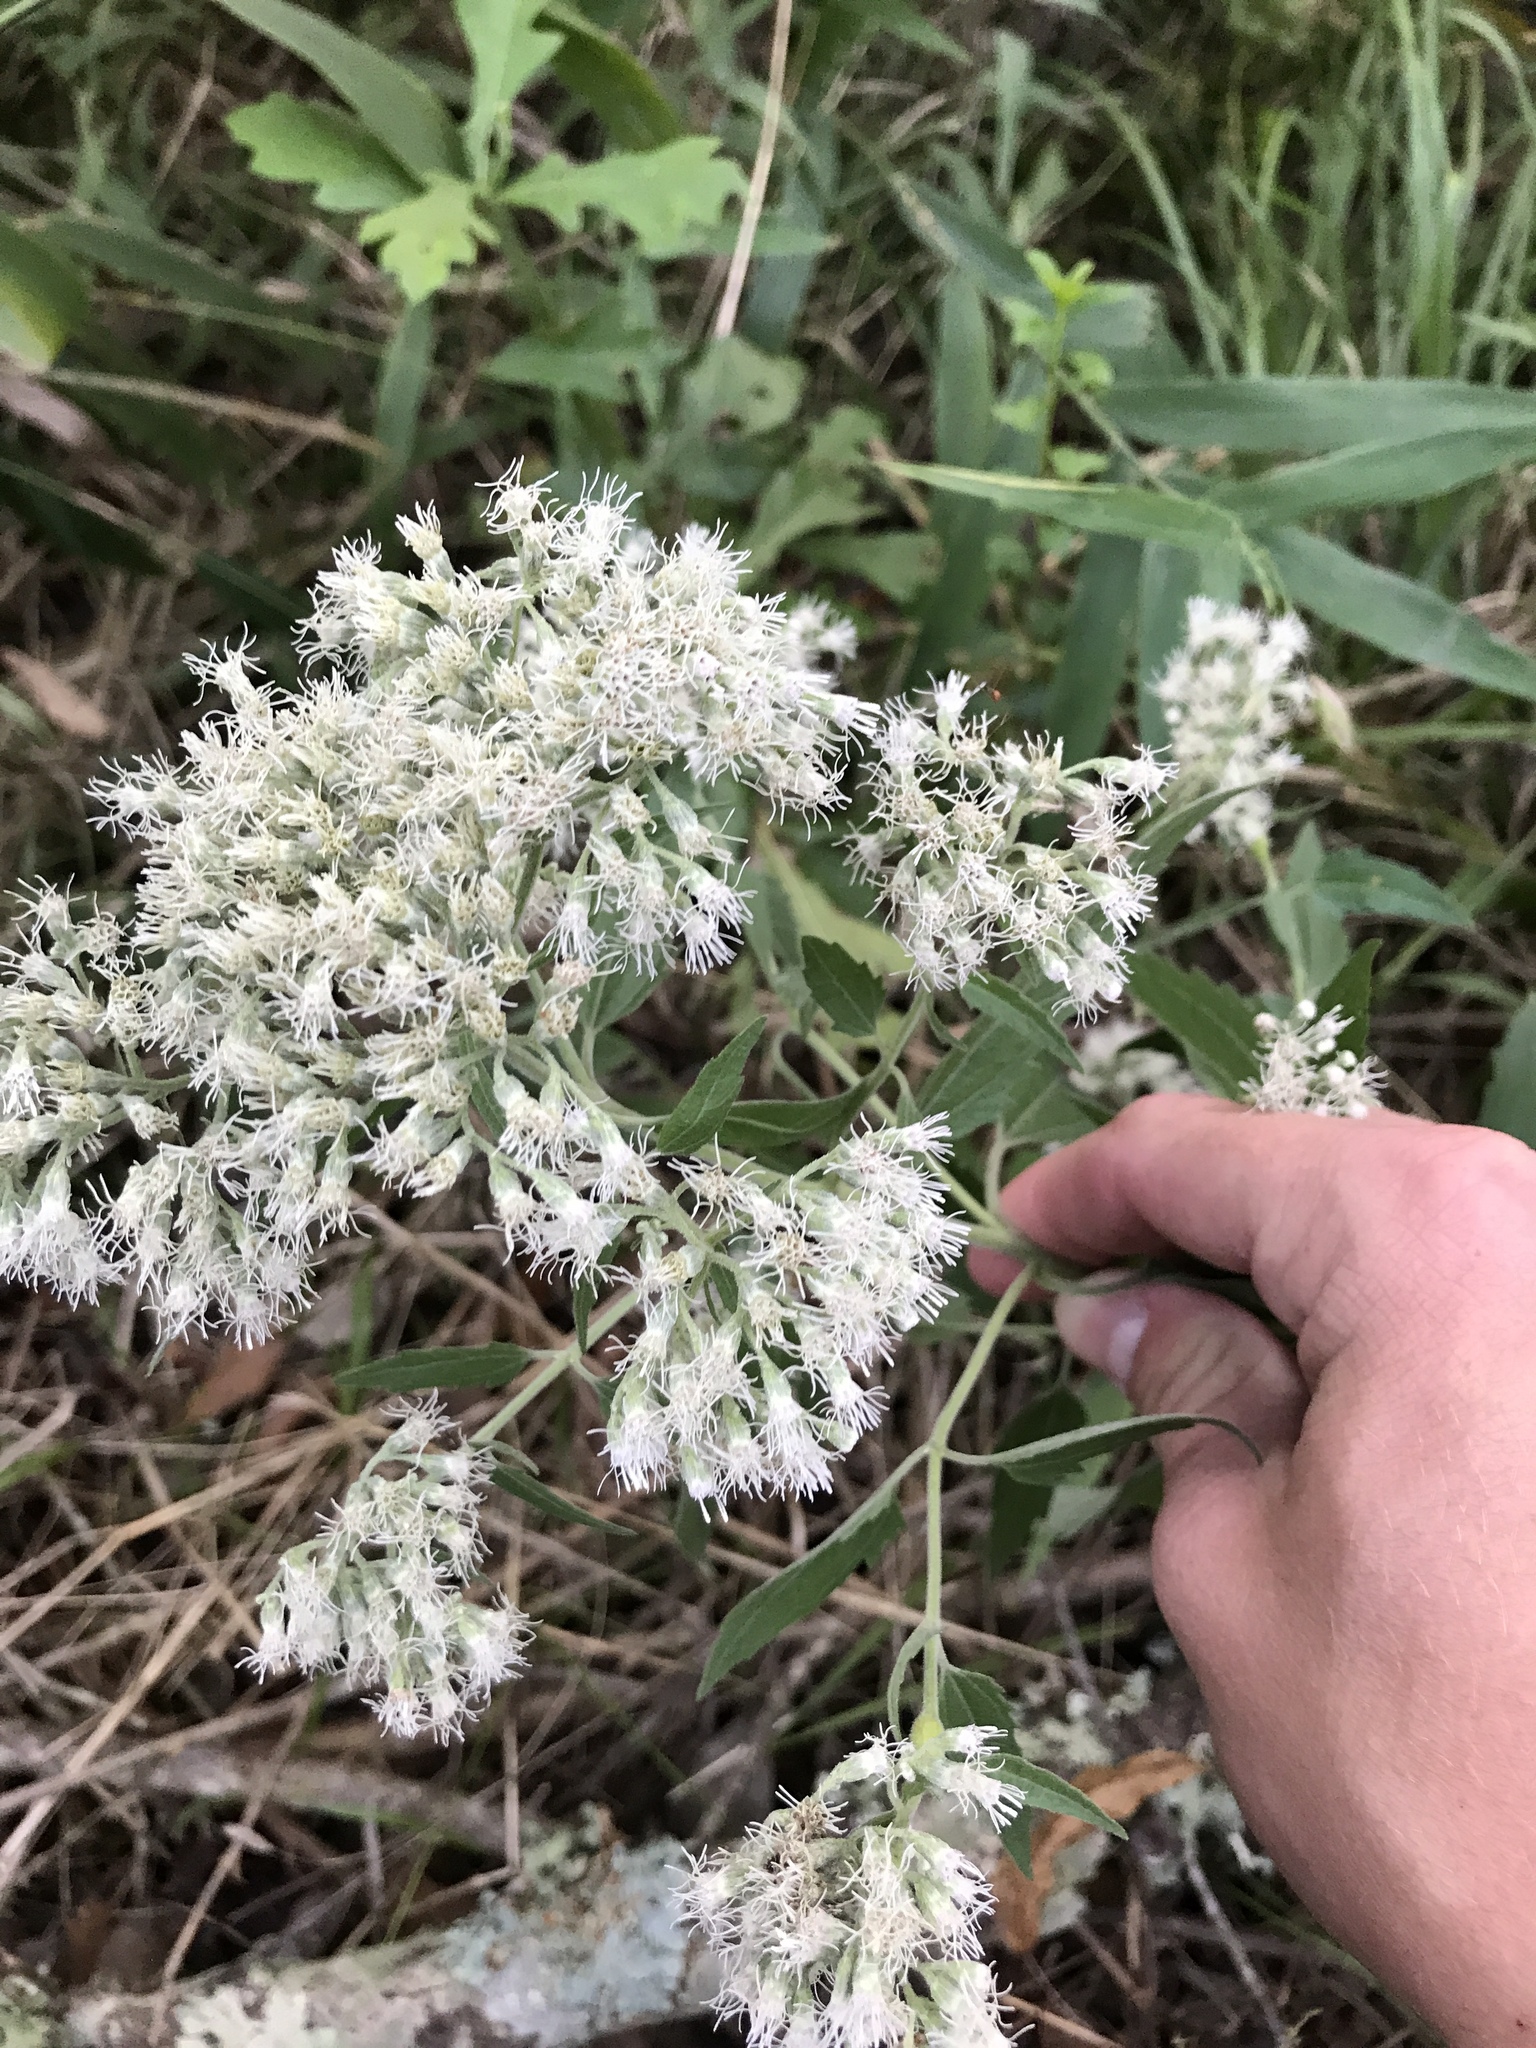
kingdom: Plantae
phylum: Tracheophyta
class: Magnoliopsida
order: Asterales
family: Asteraceae
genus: Eupatorium
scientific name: Eupatorium serotinum
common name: Late boneset
